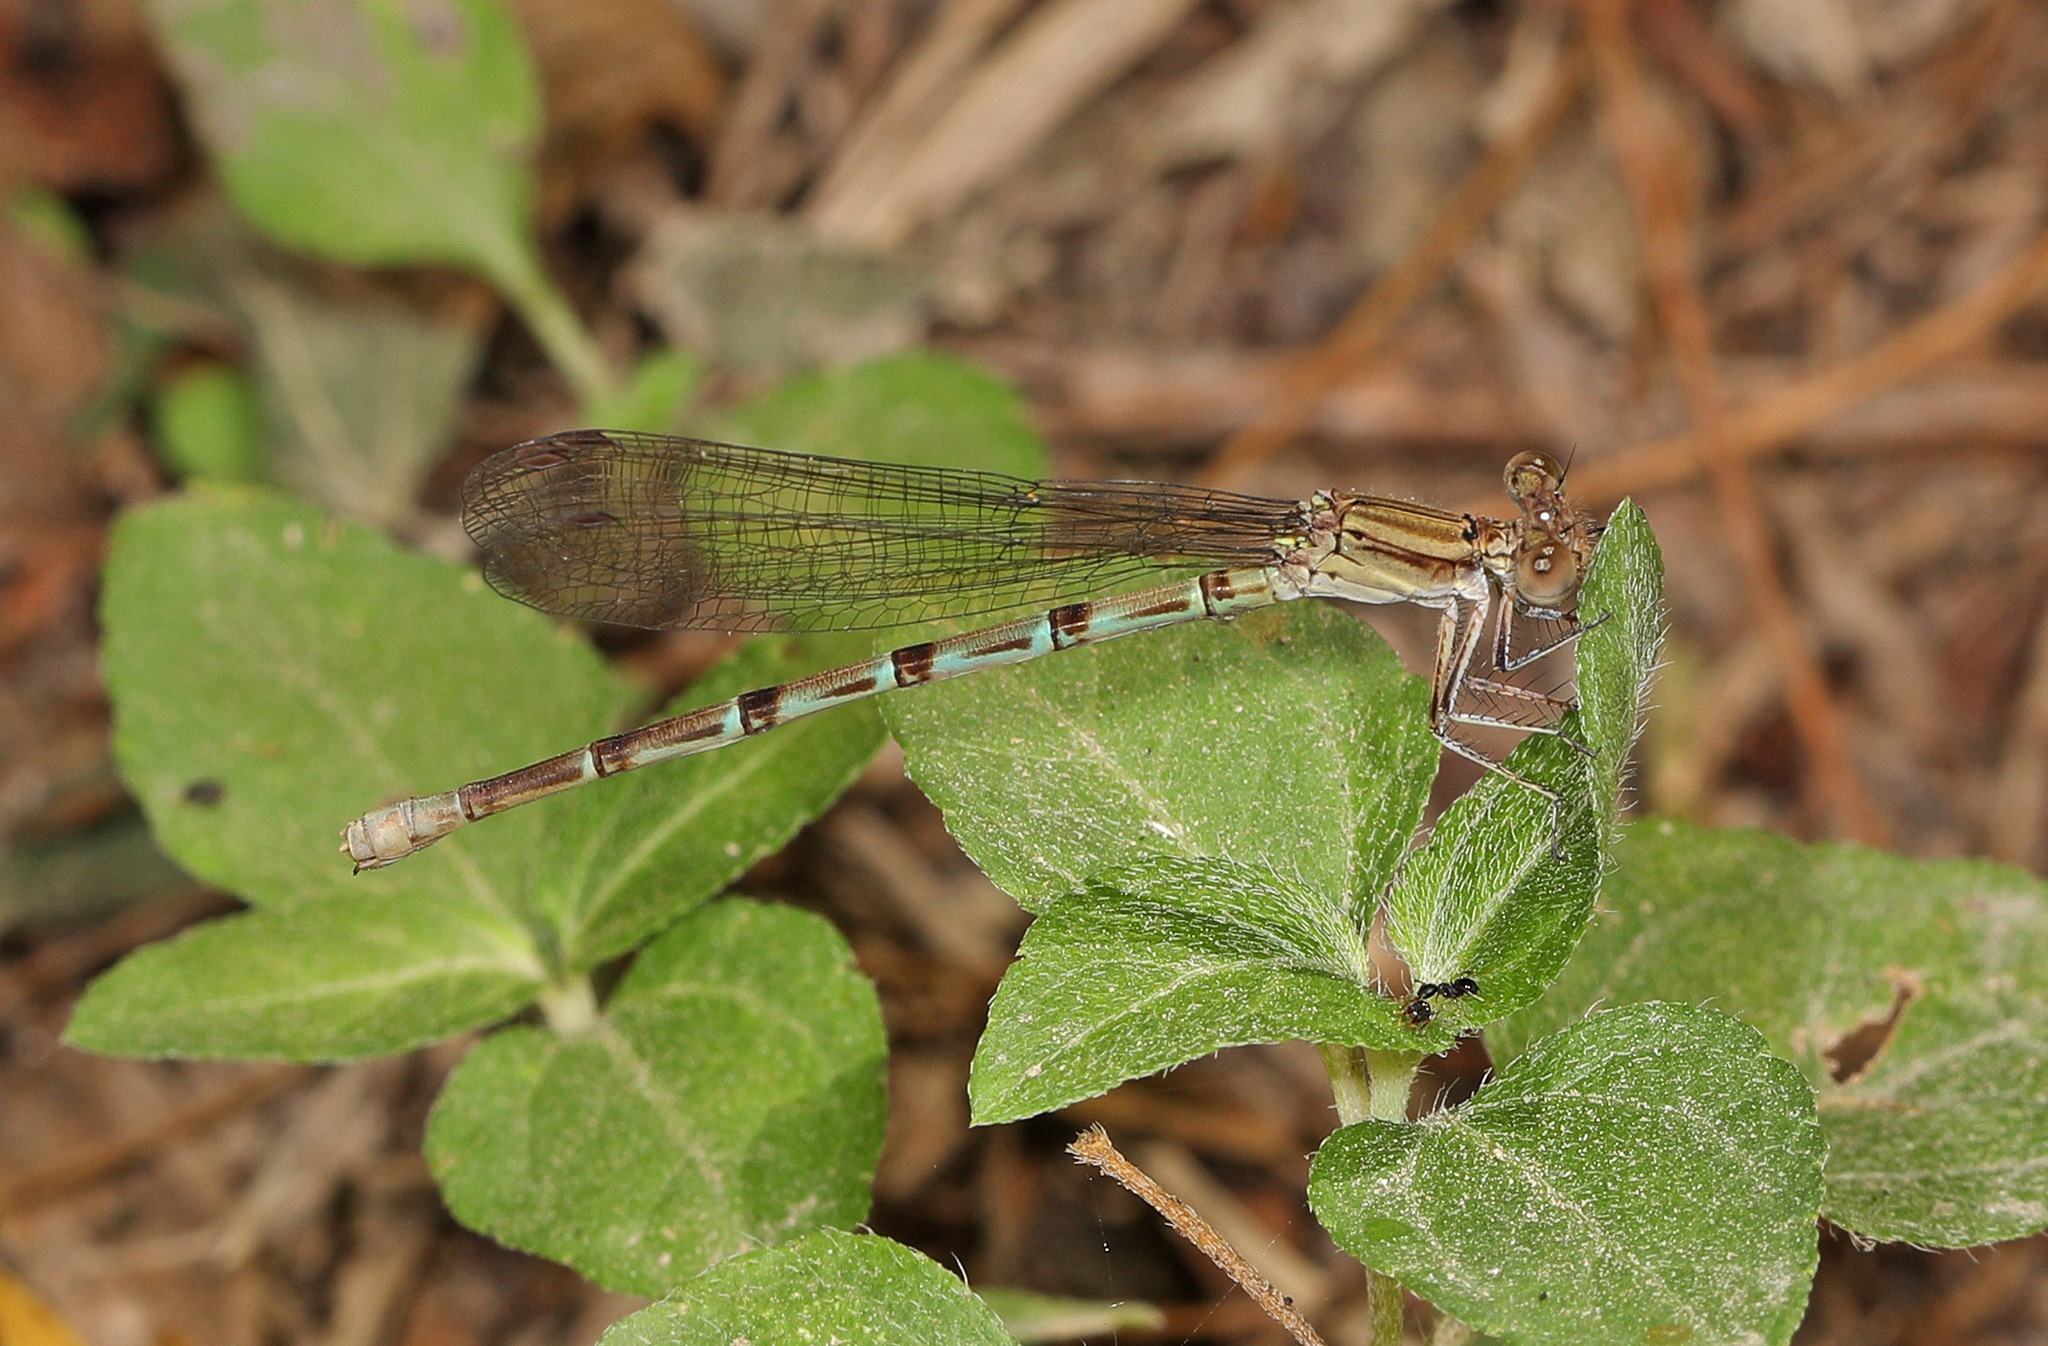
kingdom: Animalia
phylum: Arthropoda
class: Insecta
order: Odonata
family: Coenagrionidae
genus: Argia
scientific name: Argia sedula
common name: Blue-ringed dancer
